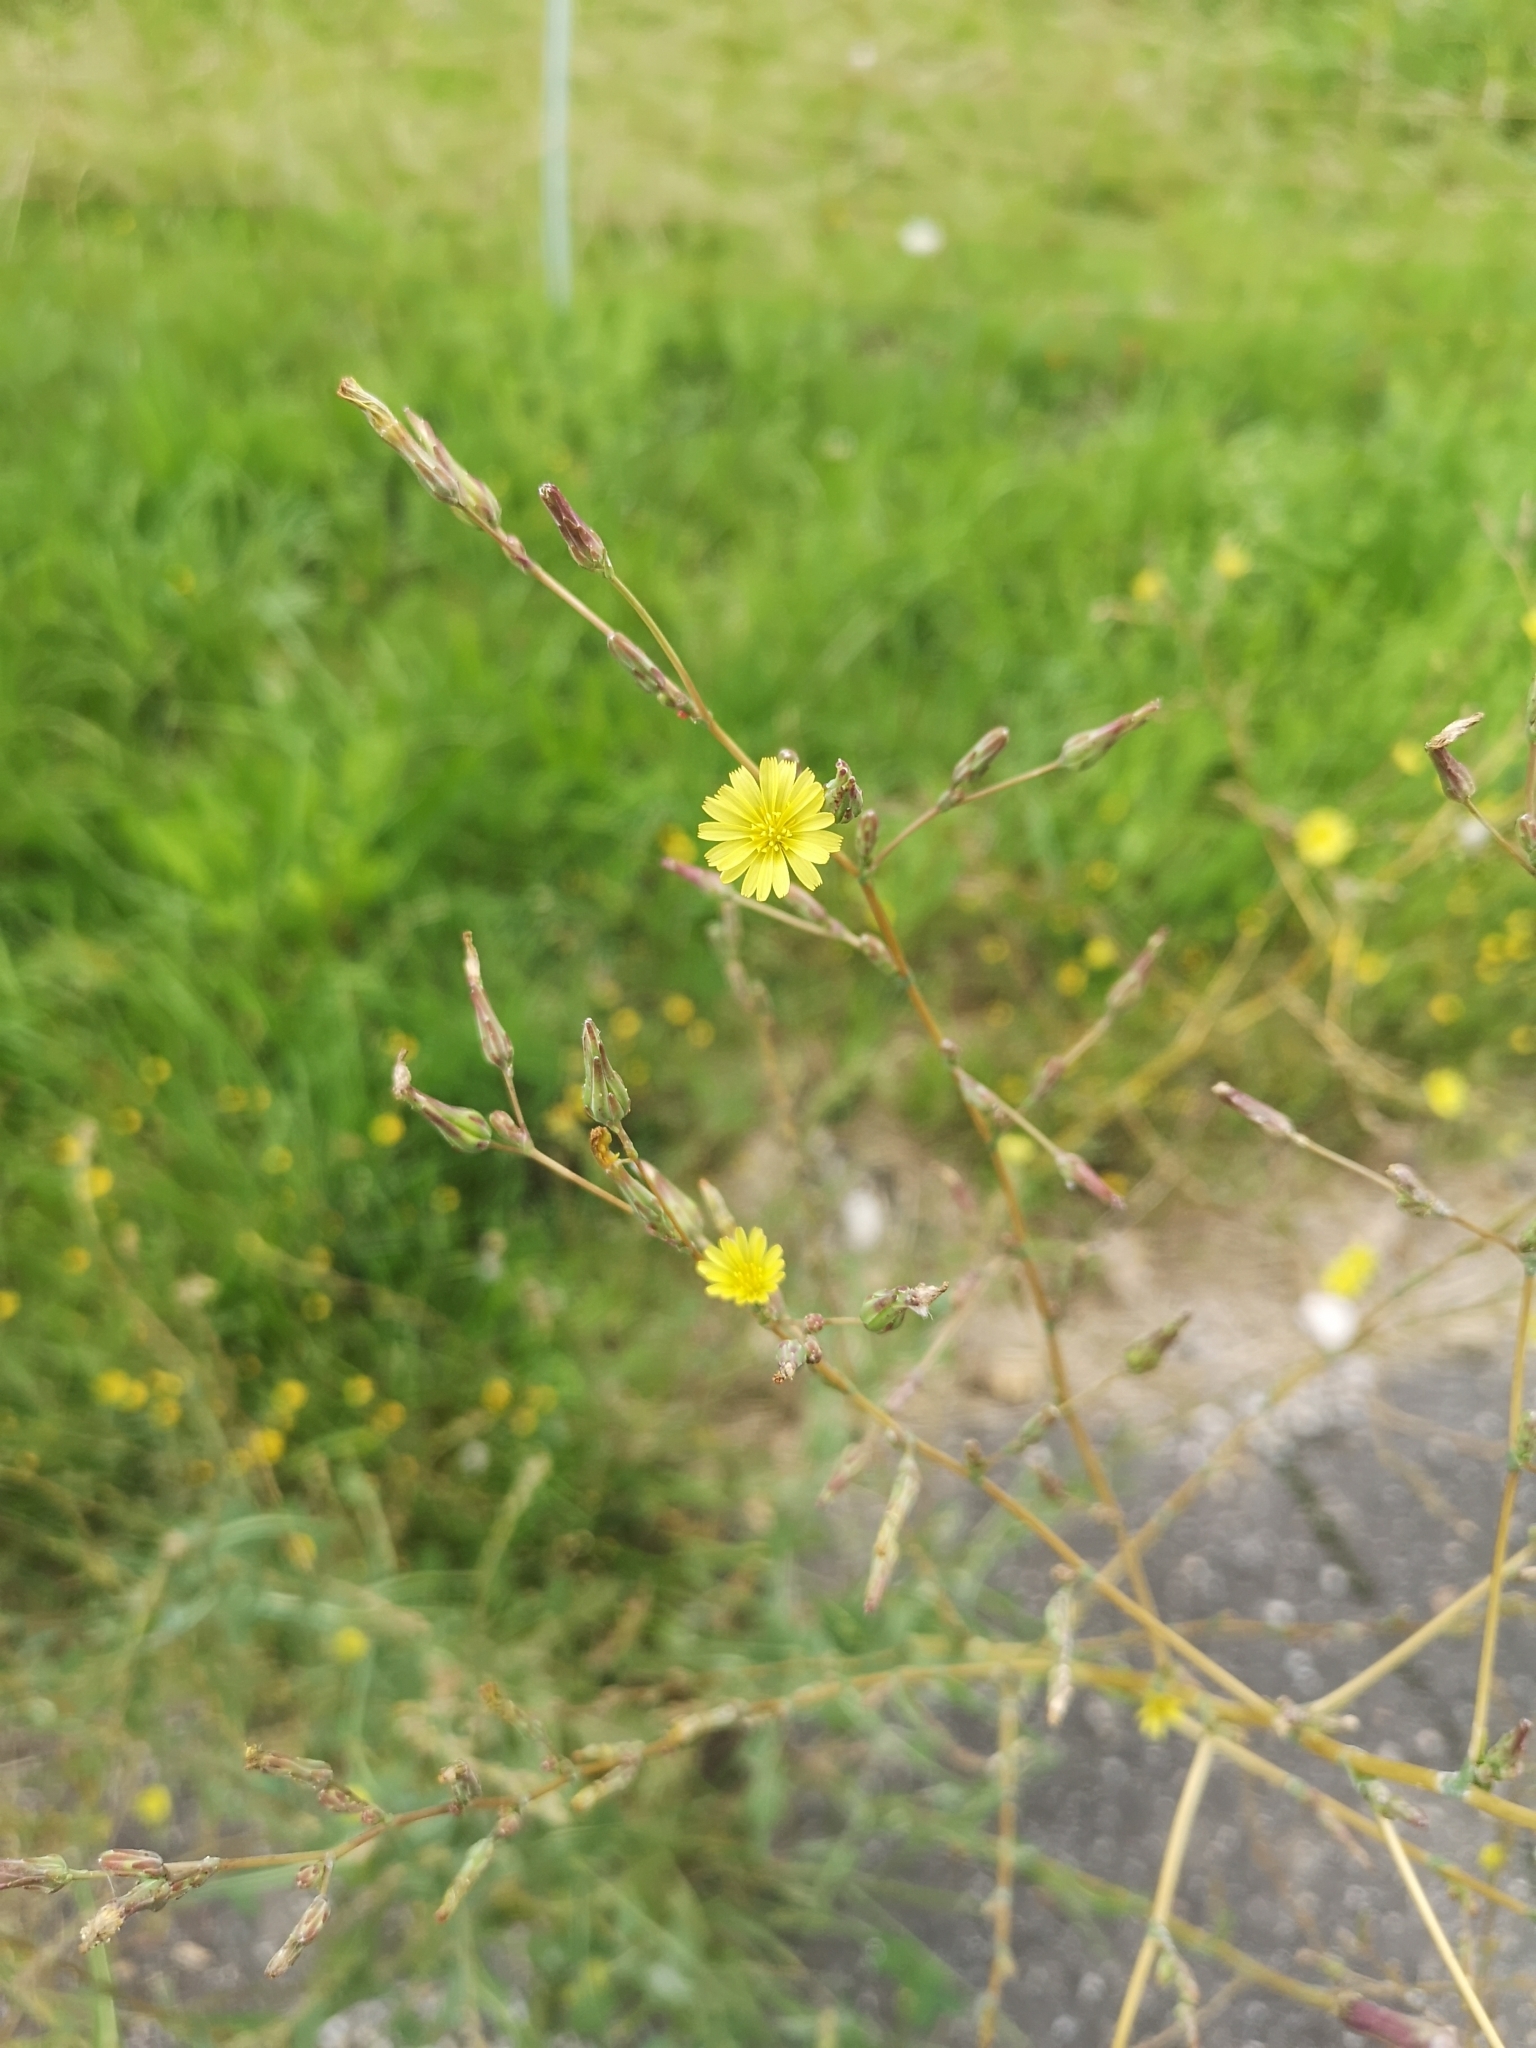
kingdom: Plantae
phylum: Tracheophyta
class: Magnoliopsida
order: Asterales
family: Asteraceae
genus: Lactuca
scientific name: Lactuca serriola
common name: Prickly lettuce
